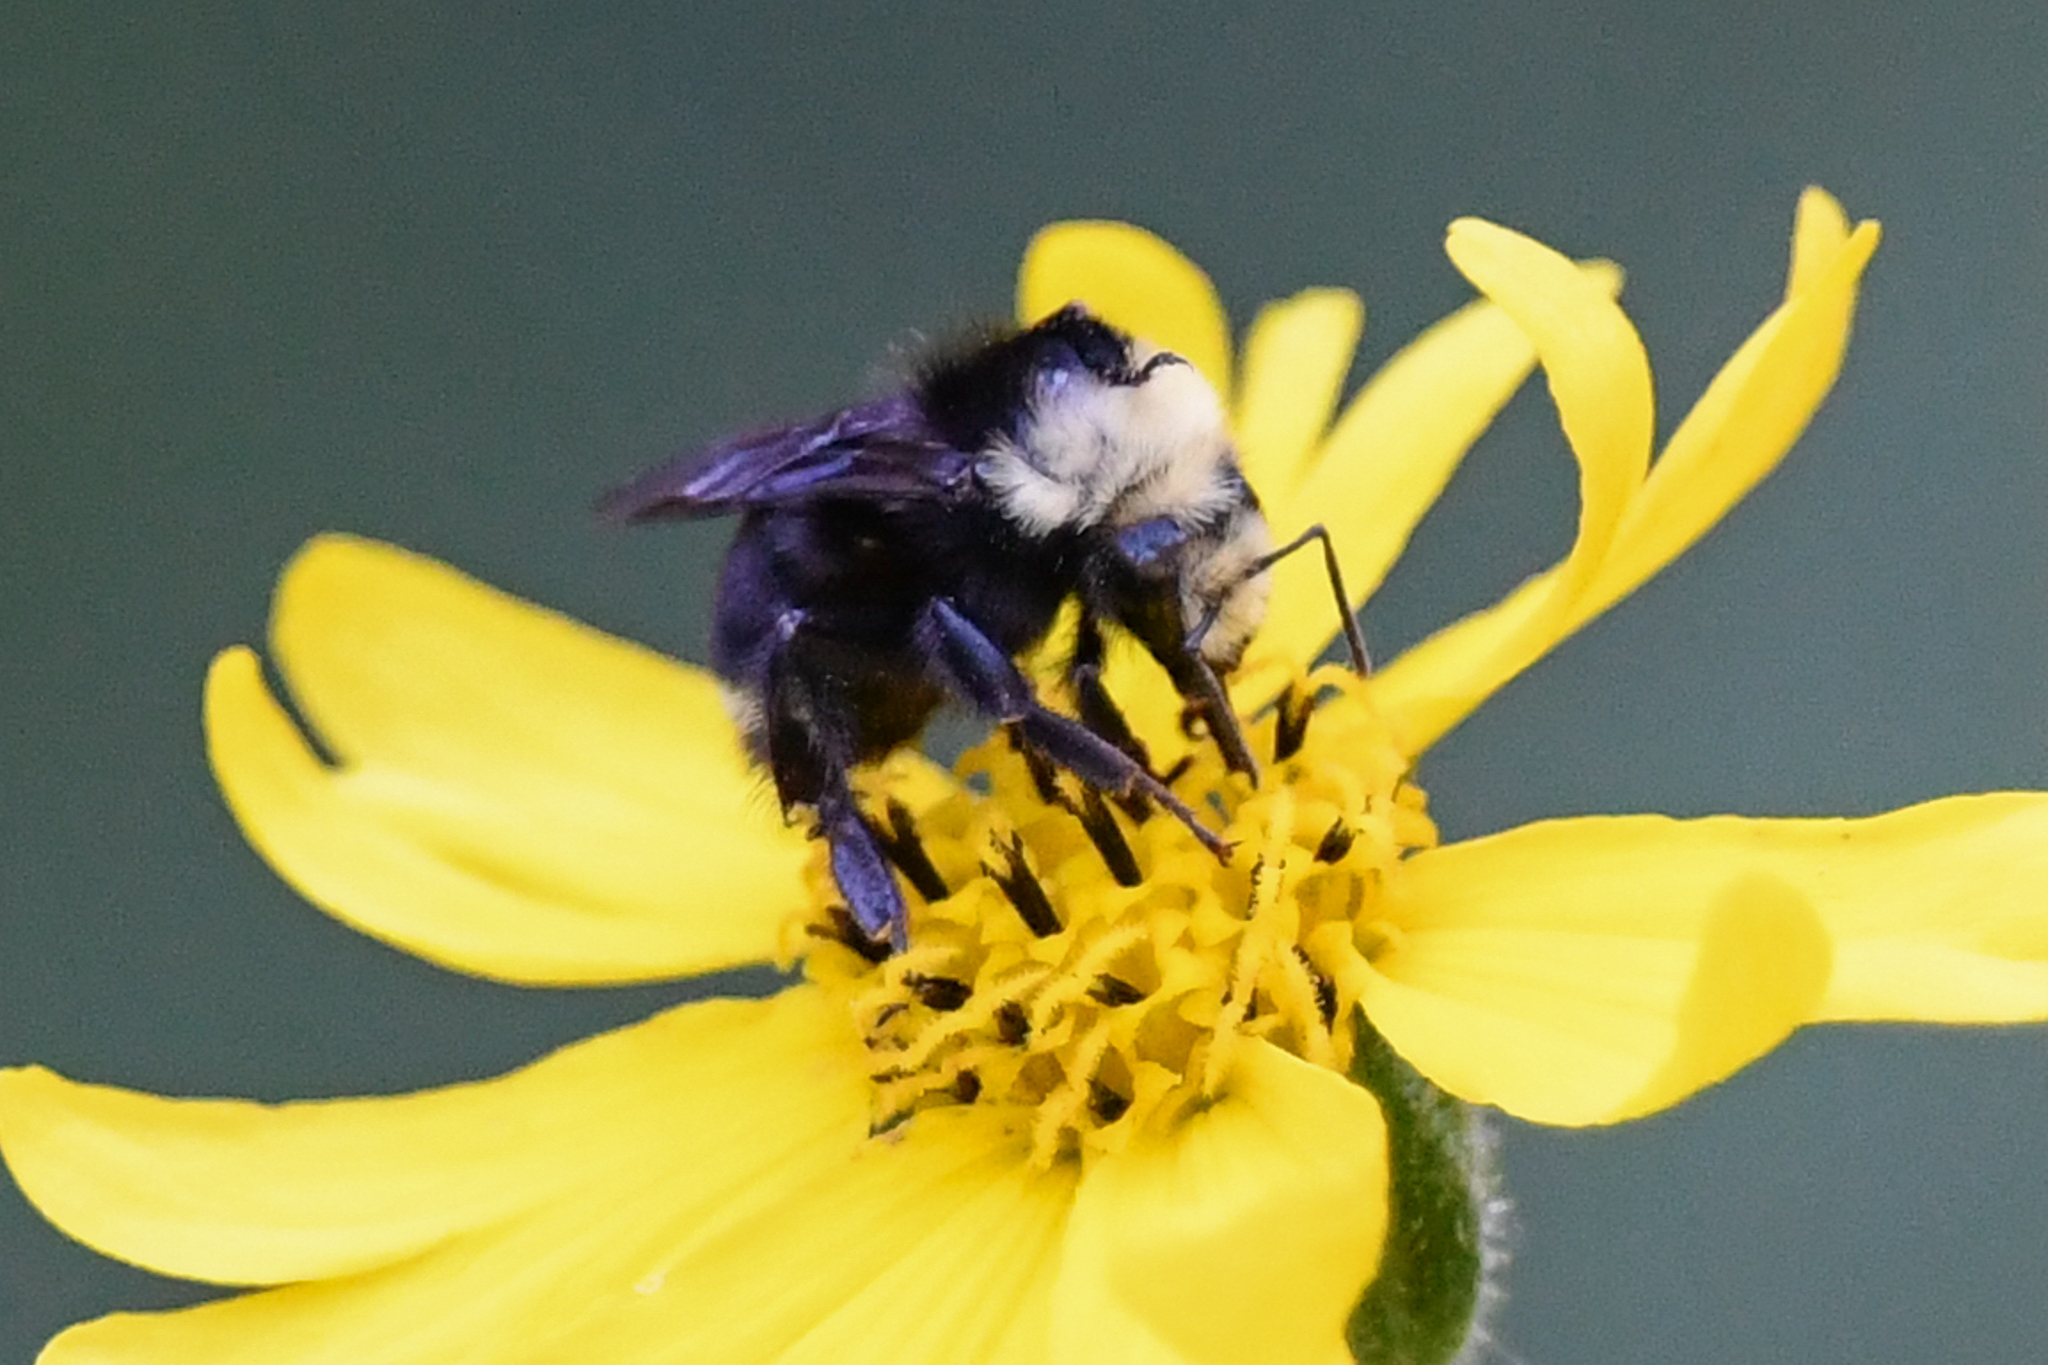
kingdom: Animalia
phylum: Arthropoda
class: Insecta
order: Hymenoptera
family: Apidae
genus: Bombus
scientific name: Bombus vosnesenskii
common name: Vosnesensky bumble bee
